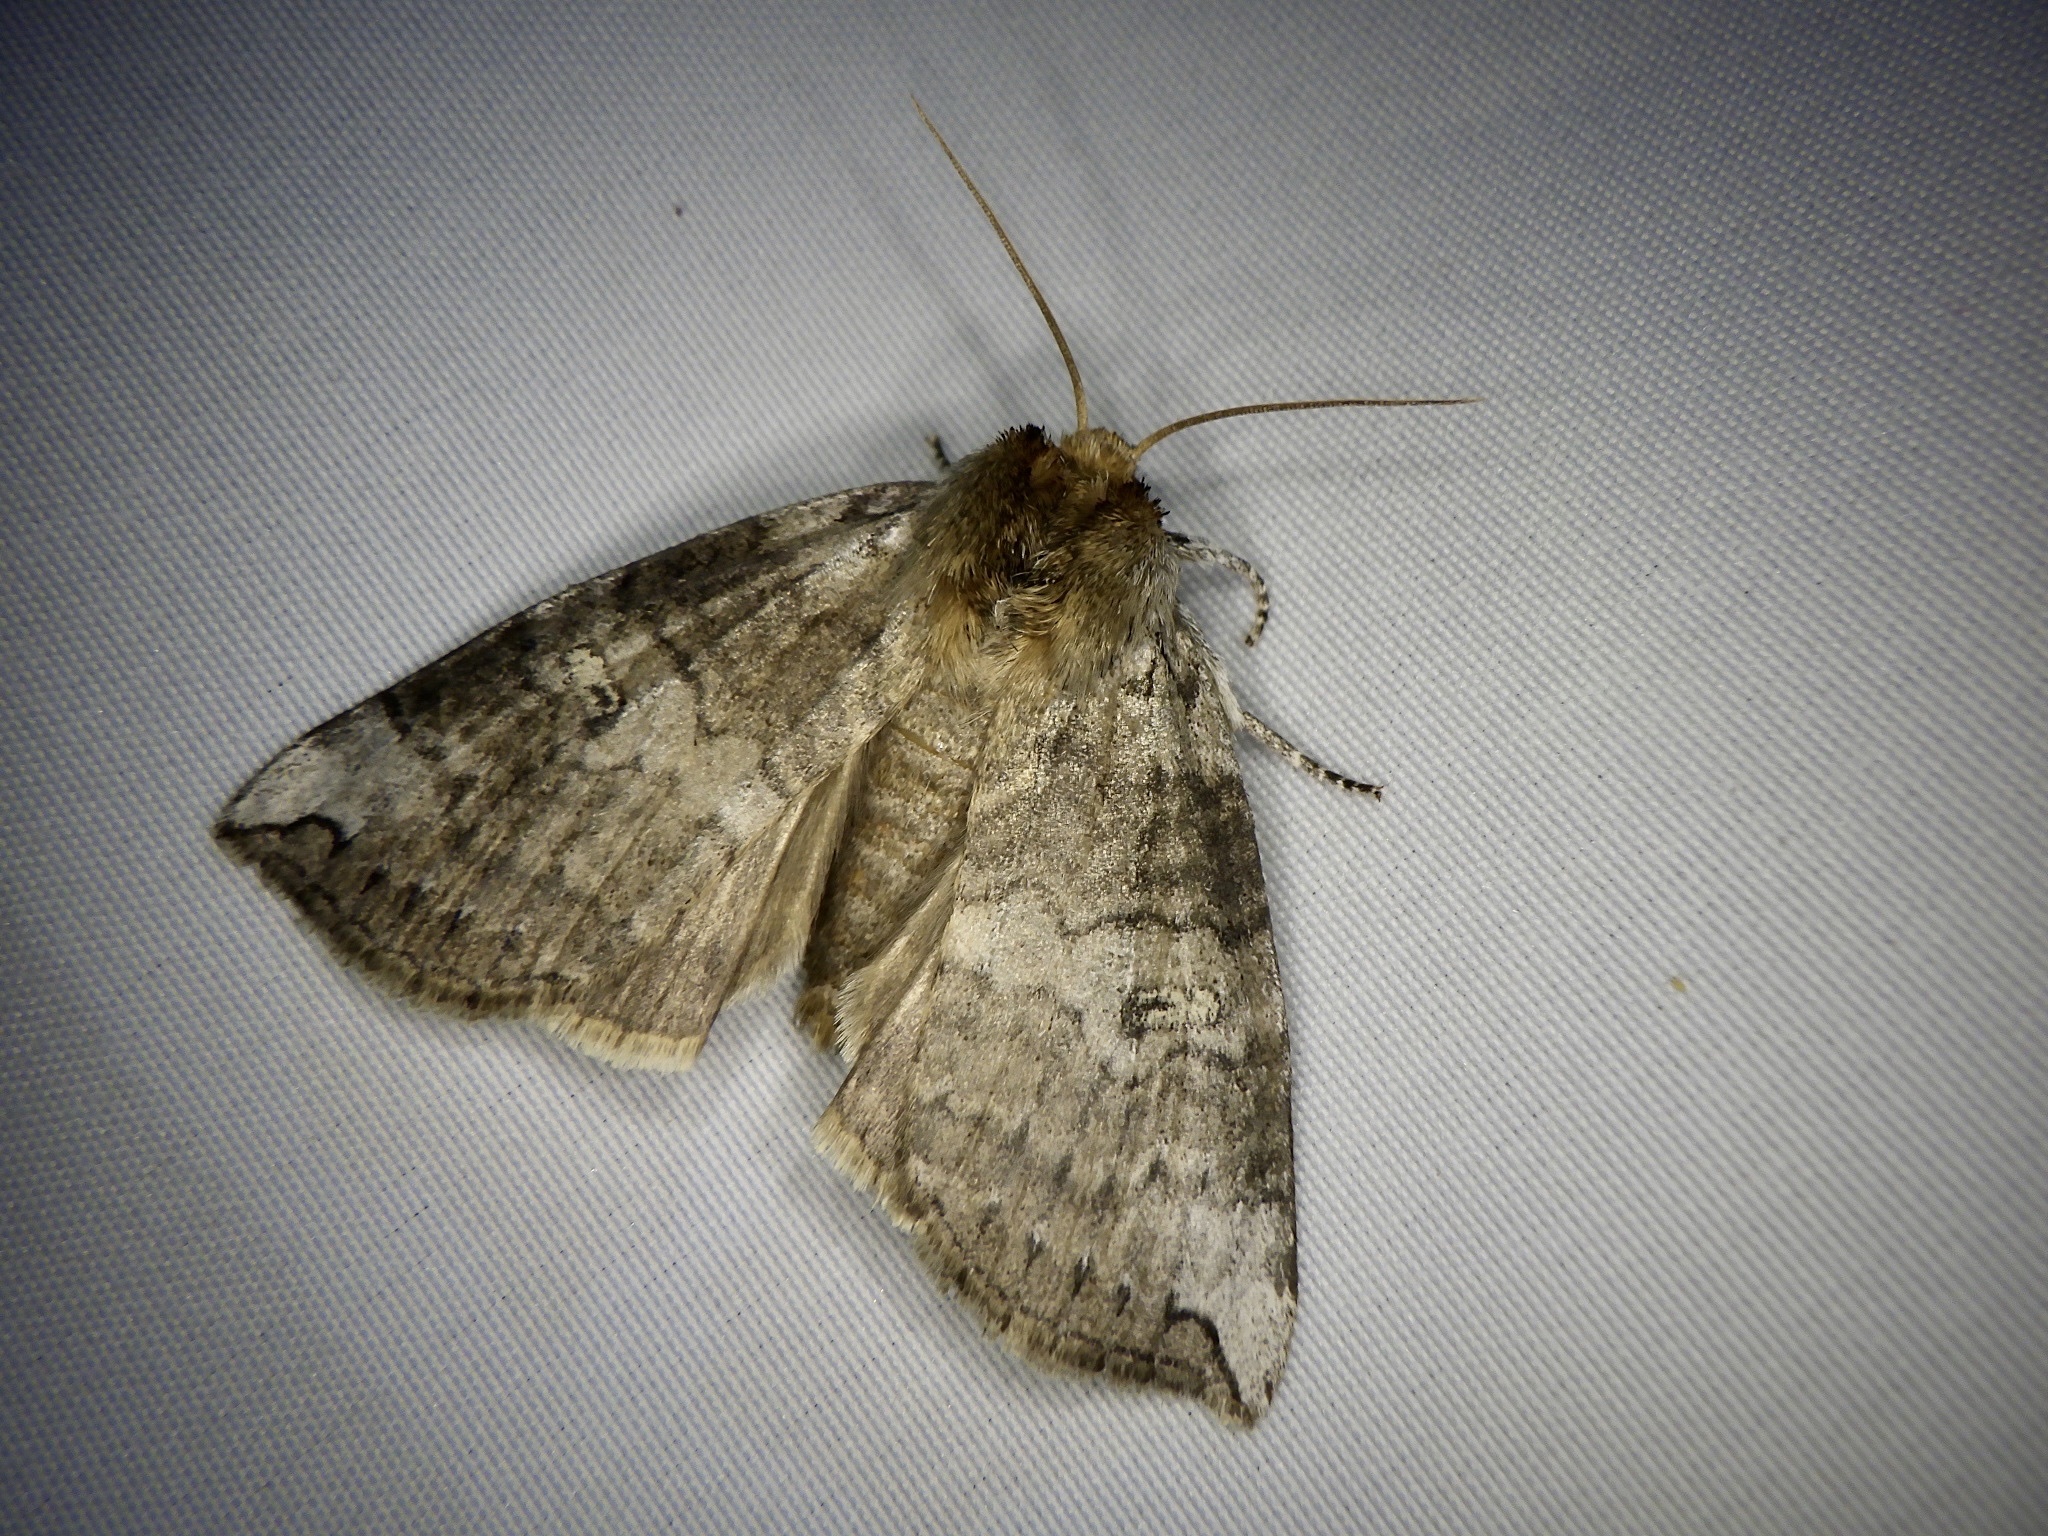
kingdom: Animalia
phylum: Arthropoda
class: Insecta
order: Lepidoptera
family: Drepanidae
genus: Tethea
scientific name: Tethea ampliata
